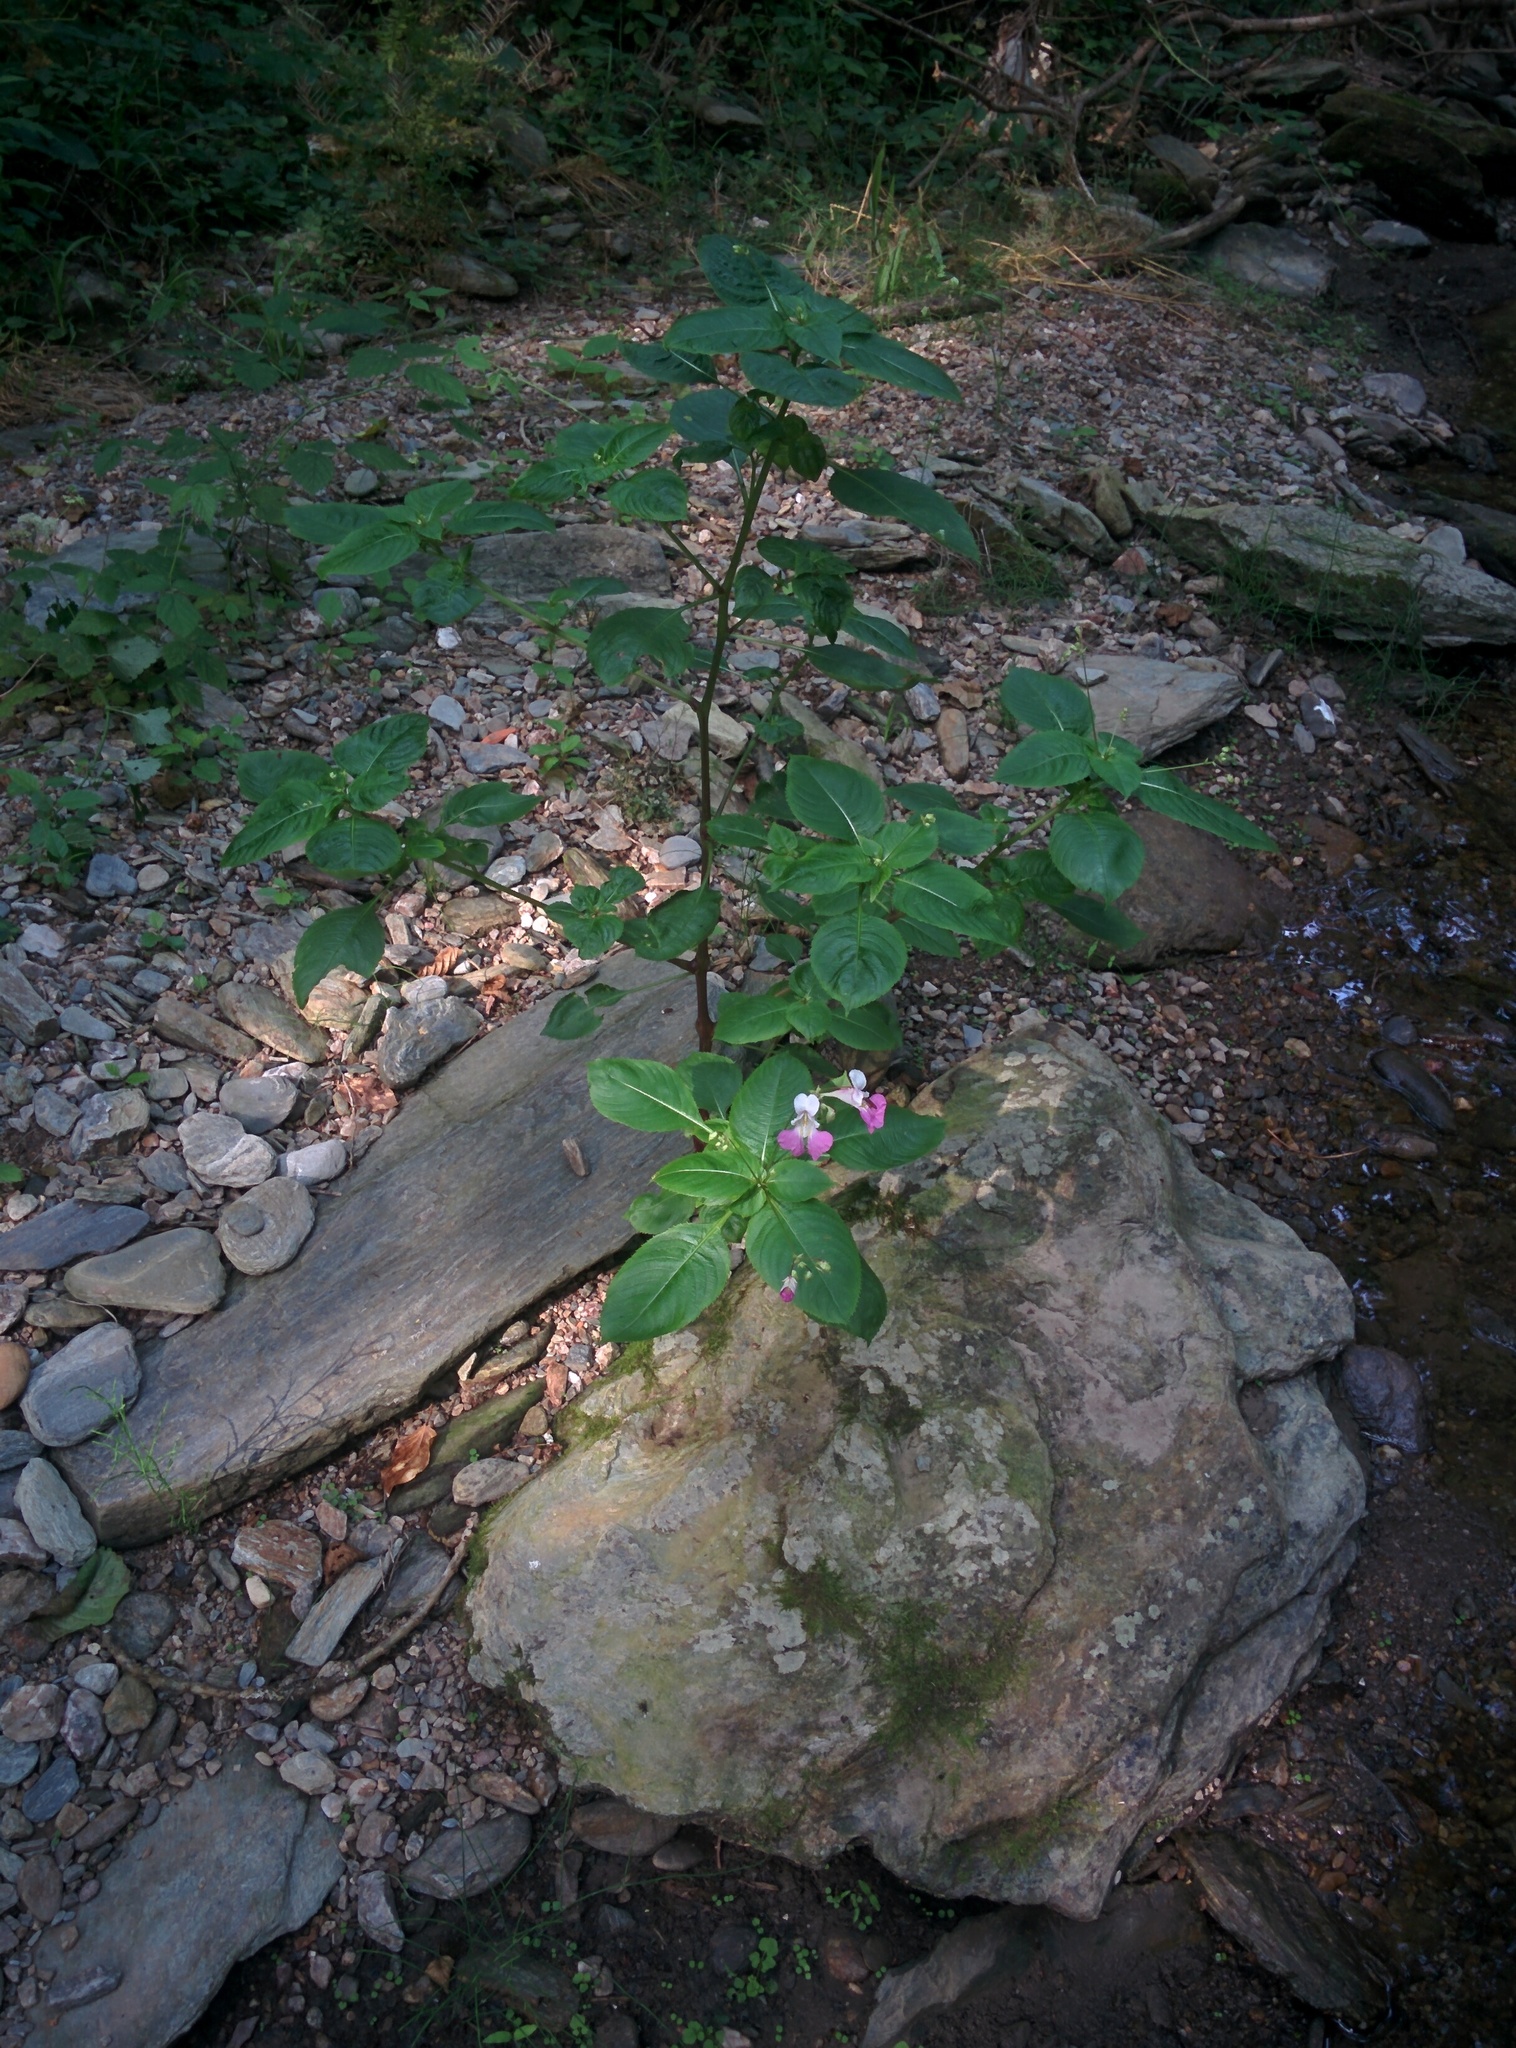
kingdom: Plantae
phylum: Tracheophyta
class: Magnoliopsida
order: Ericales
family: Balsaminaceae
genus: Impatiens
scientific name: Impatiens balfourii
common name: Balfour's touch-me-not
